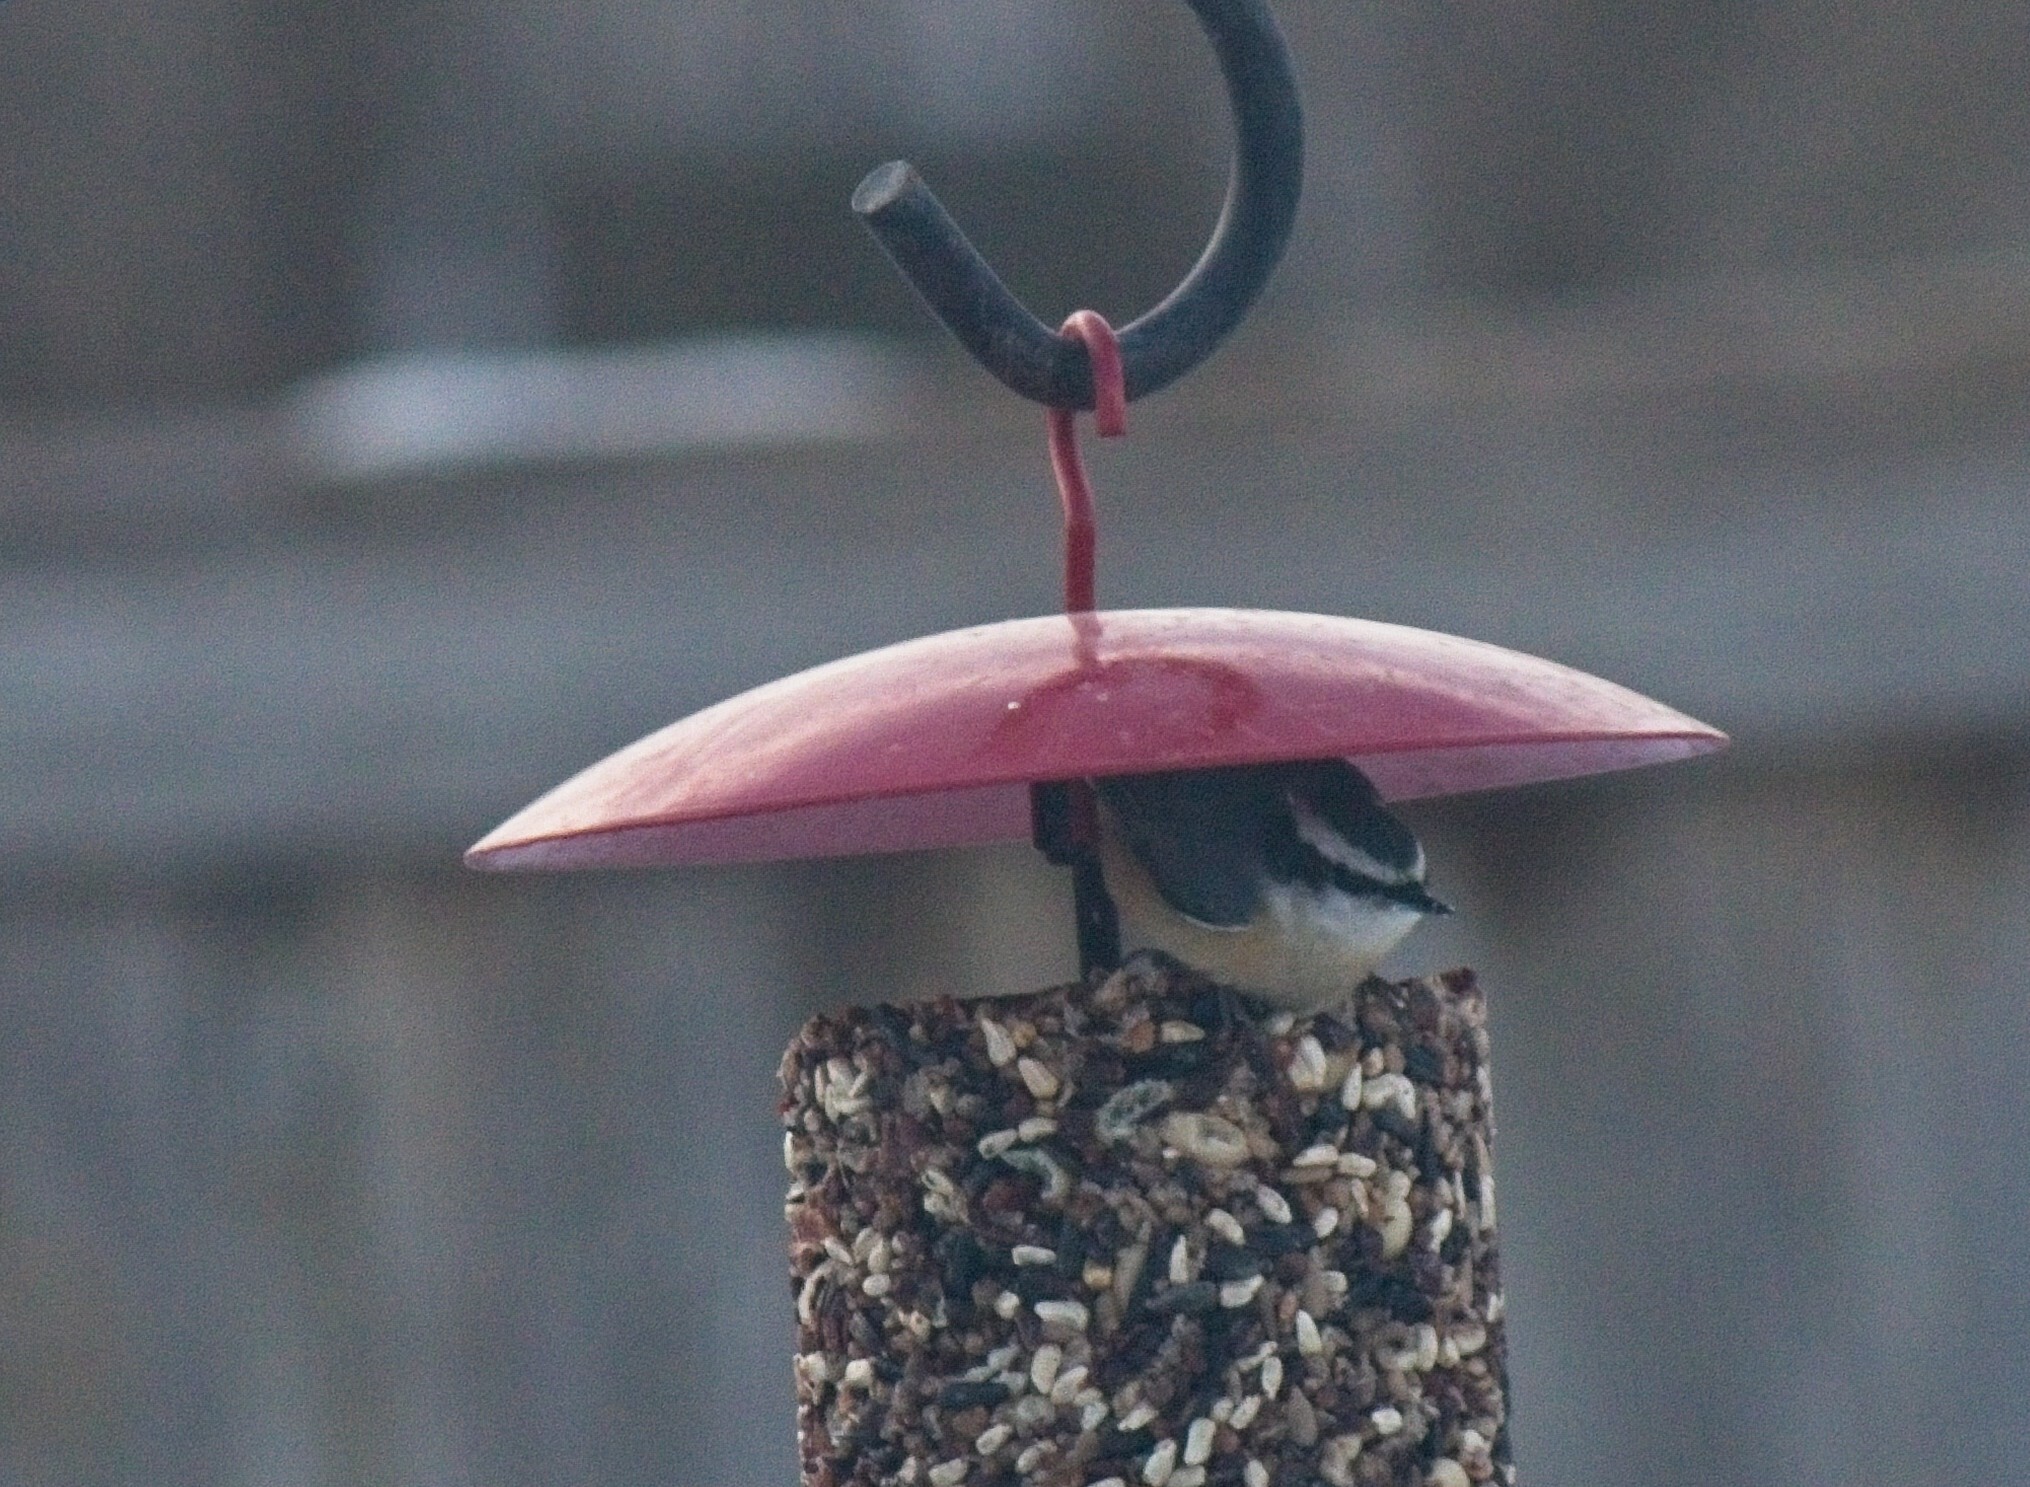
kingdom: Animalia
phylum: Chordata
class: Aves
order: Passeriformes
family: Sittidae
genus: Sitta
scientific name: Sitta canadensis
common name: Red-breasted nuthatch
